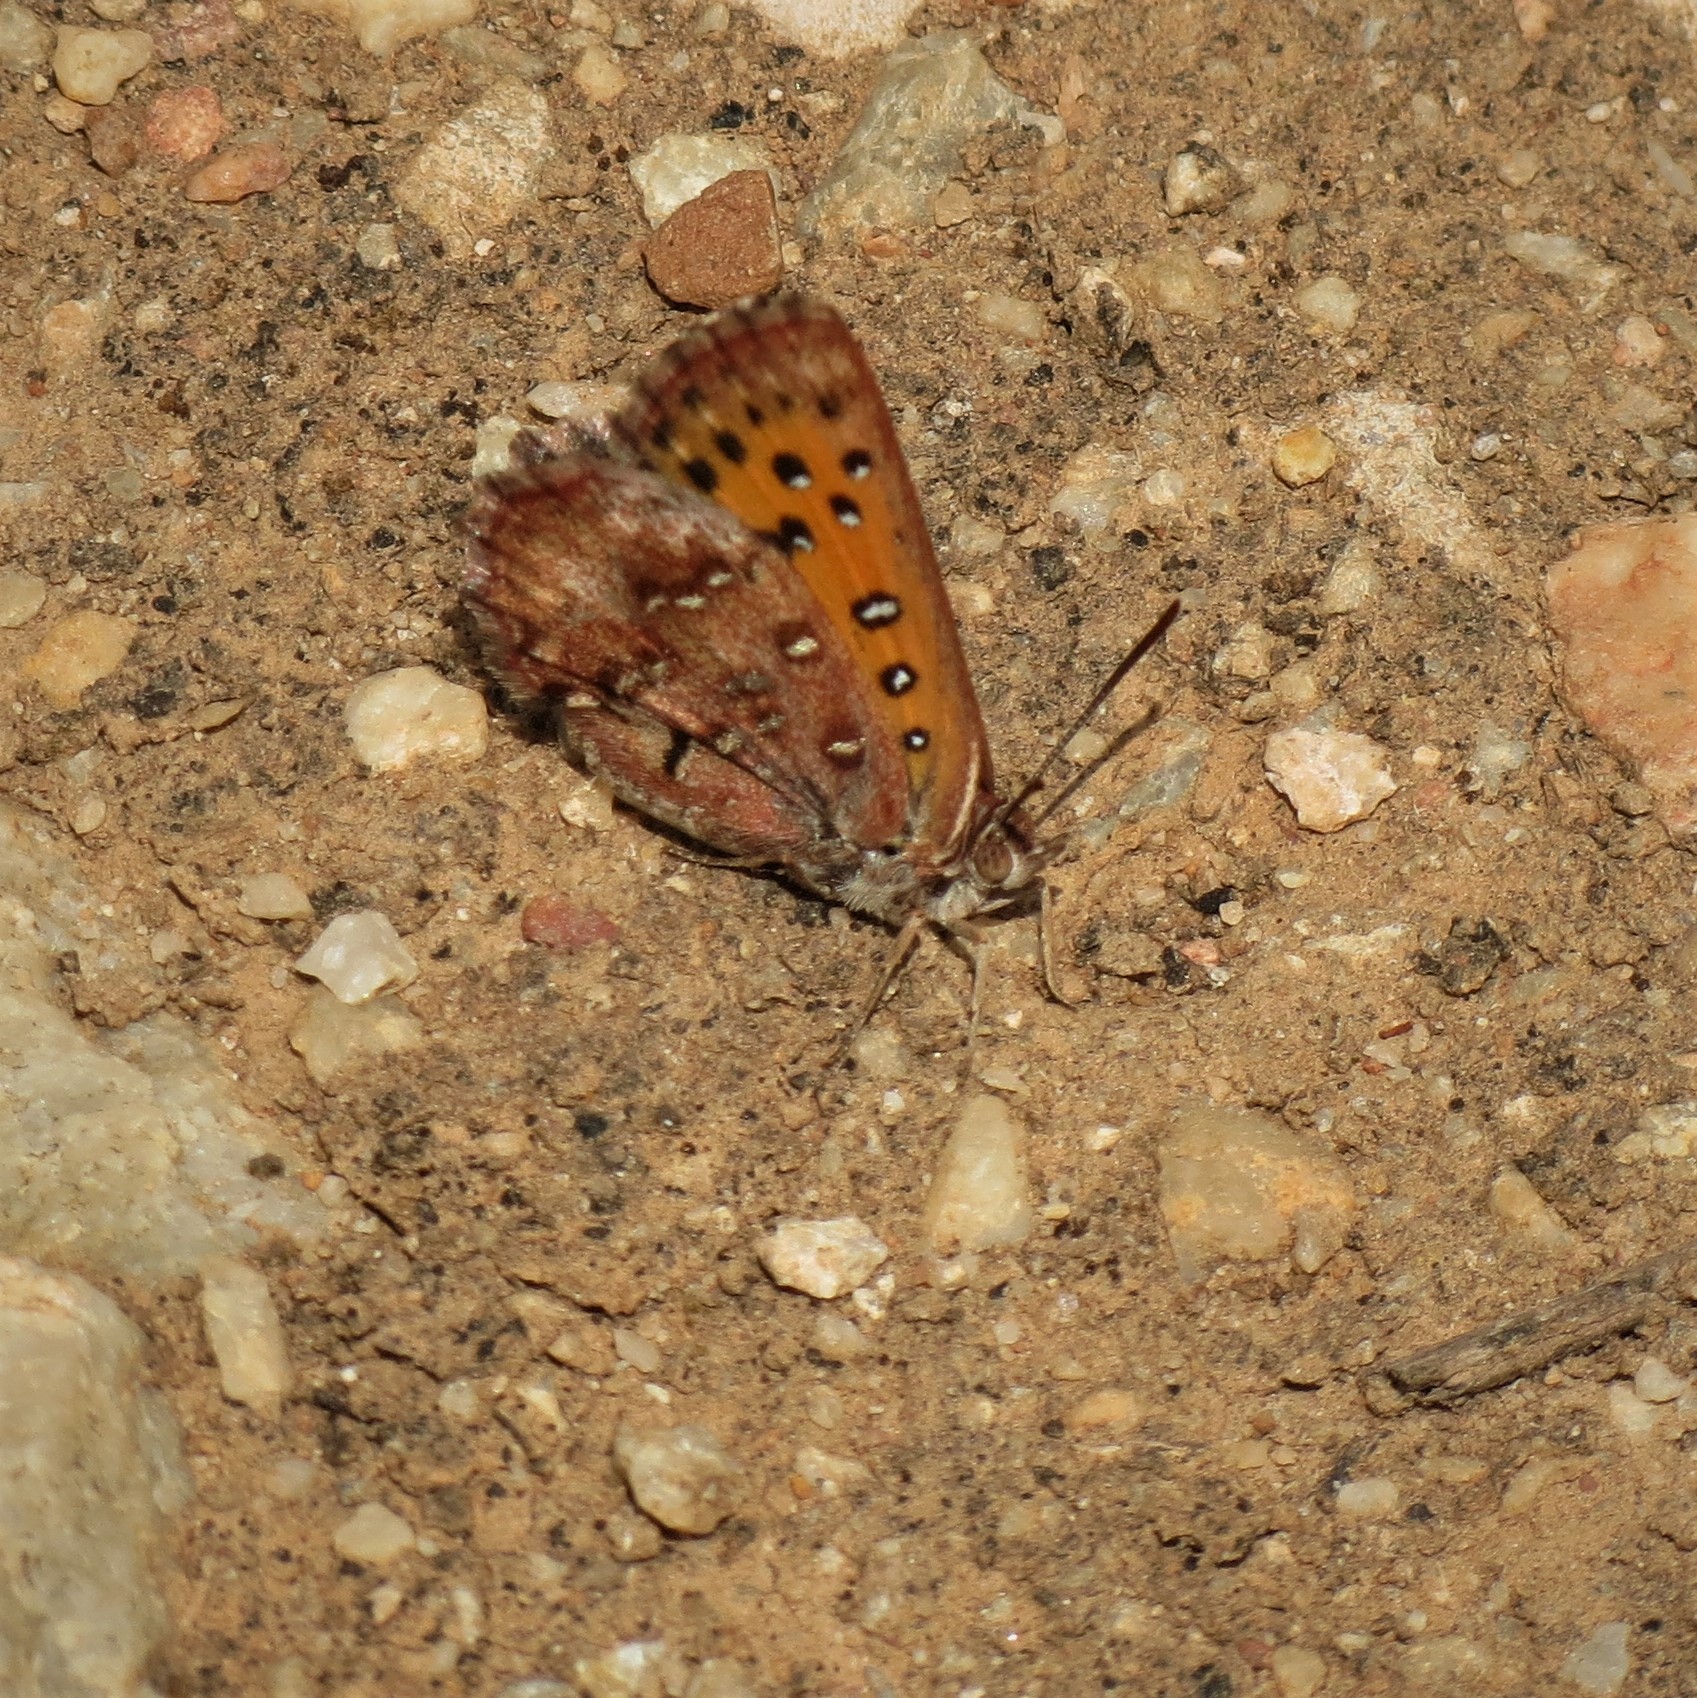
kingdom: Animalia
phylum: Arthropoda
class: Insecta
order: Lepidoptera
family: Lycaenidae
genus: Aloeides
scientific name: Aloeides taikosama
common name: Dusky copper
